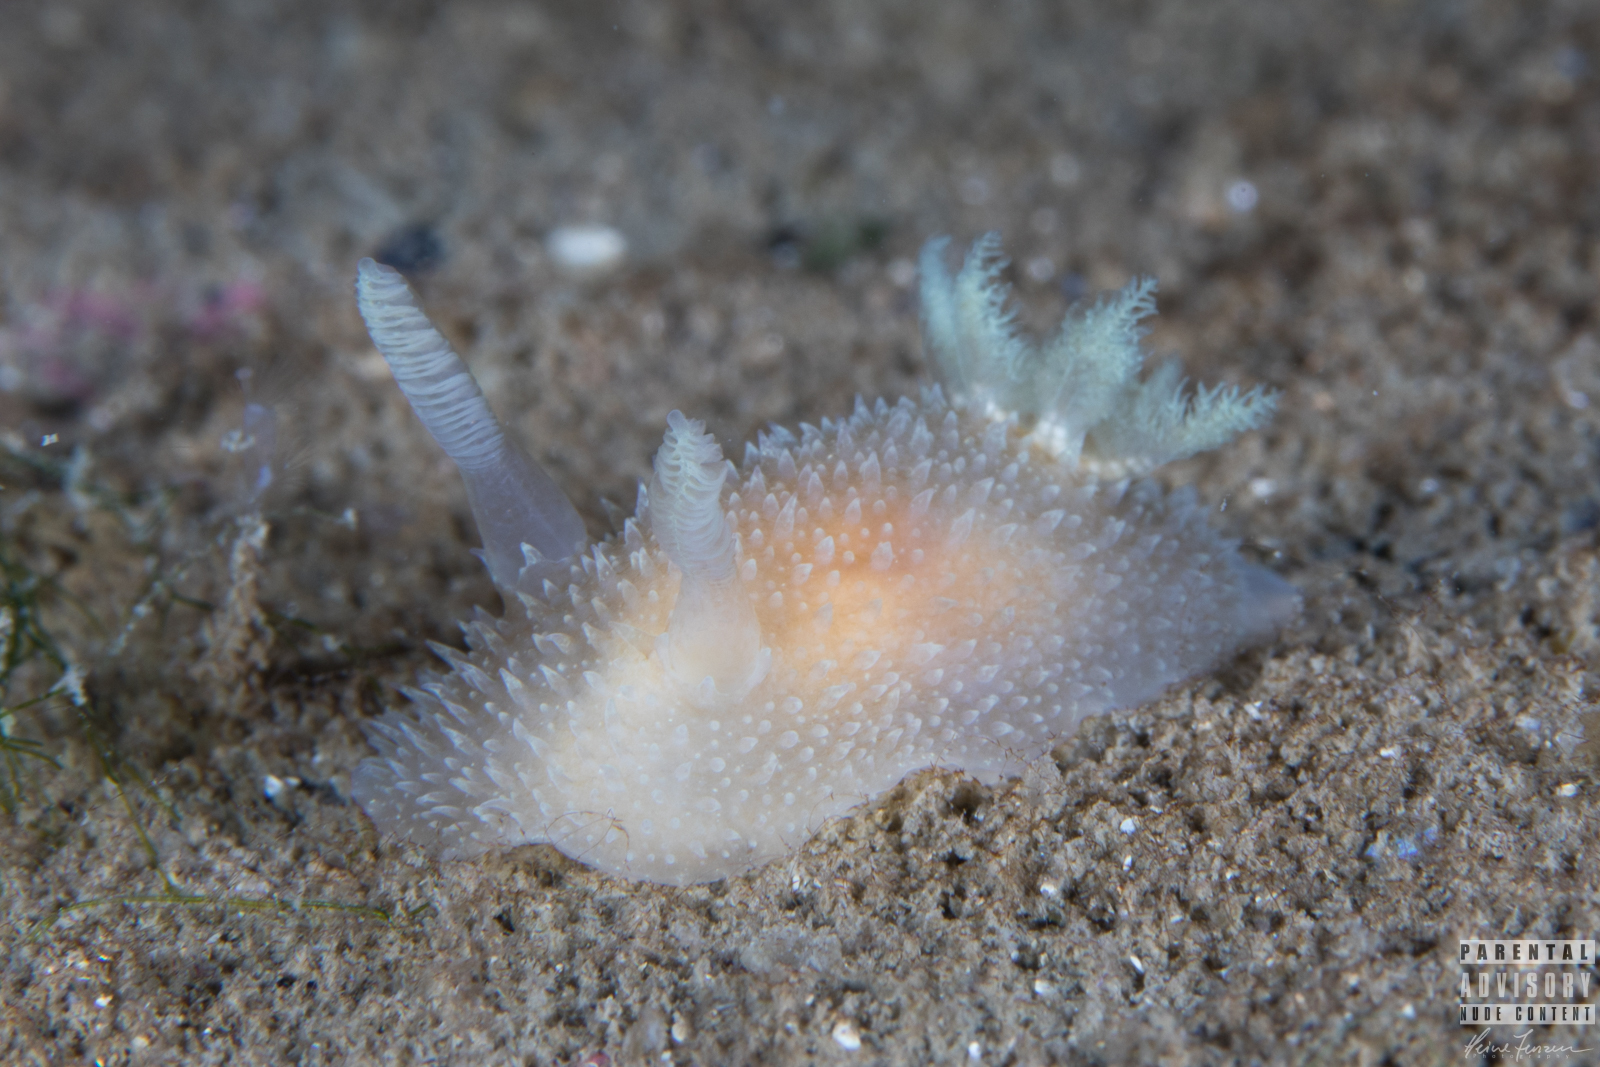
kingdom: Animalia
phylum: Mollusca
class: Gastropoda
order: Nudibranchia
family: Onchidorididae
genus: Acanthodoris
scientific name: Acanthodoris pilosa
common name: Hairy spiny doris
